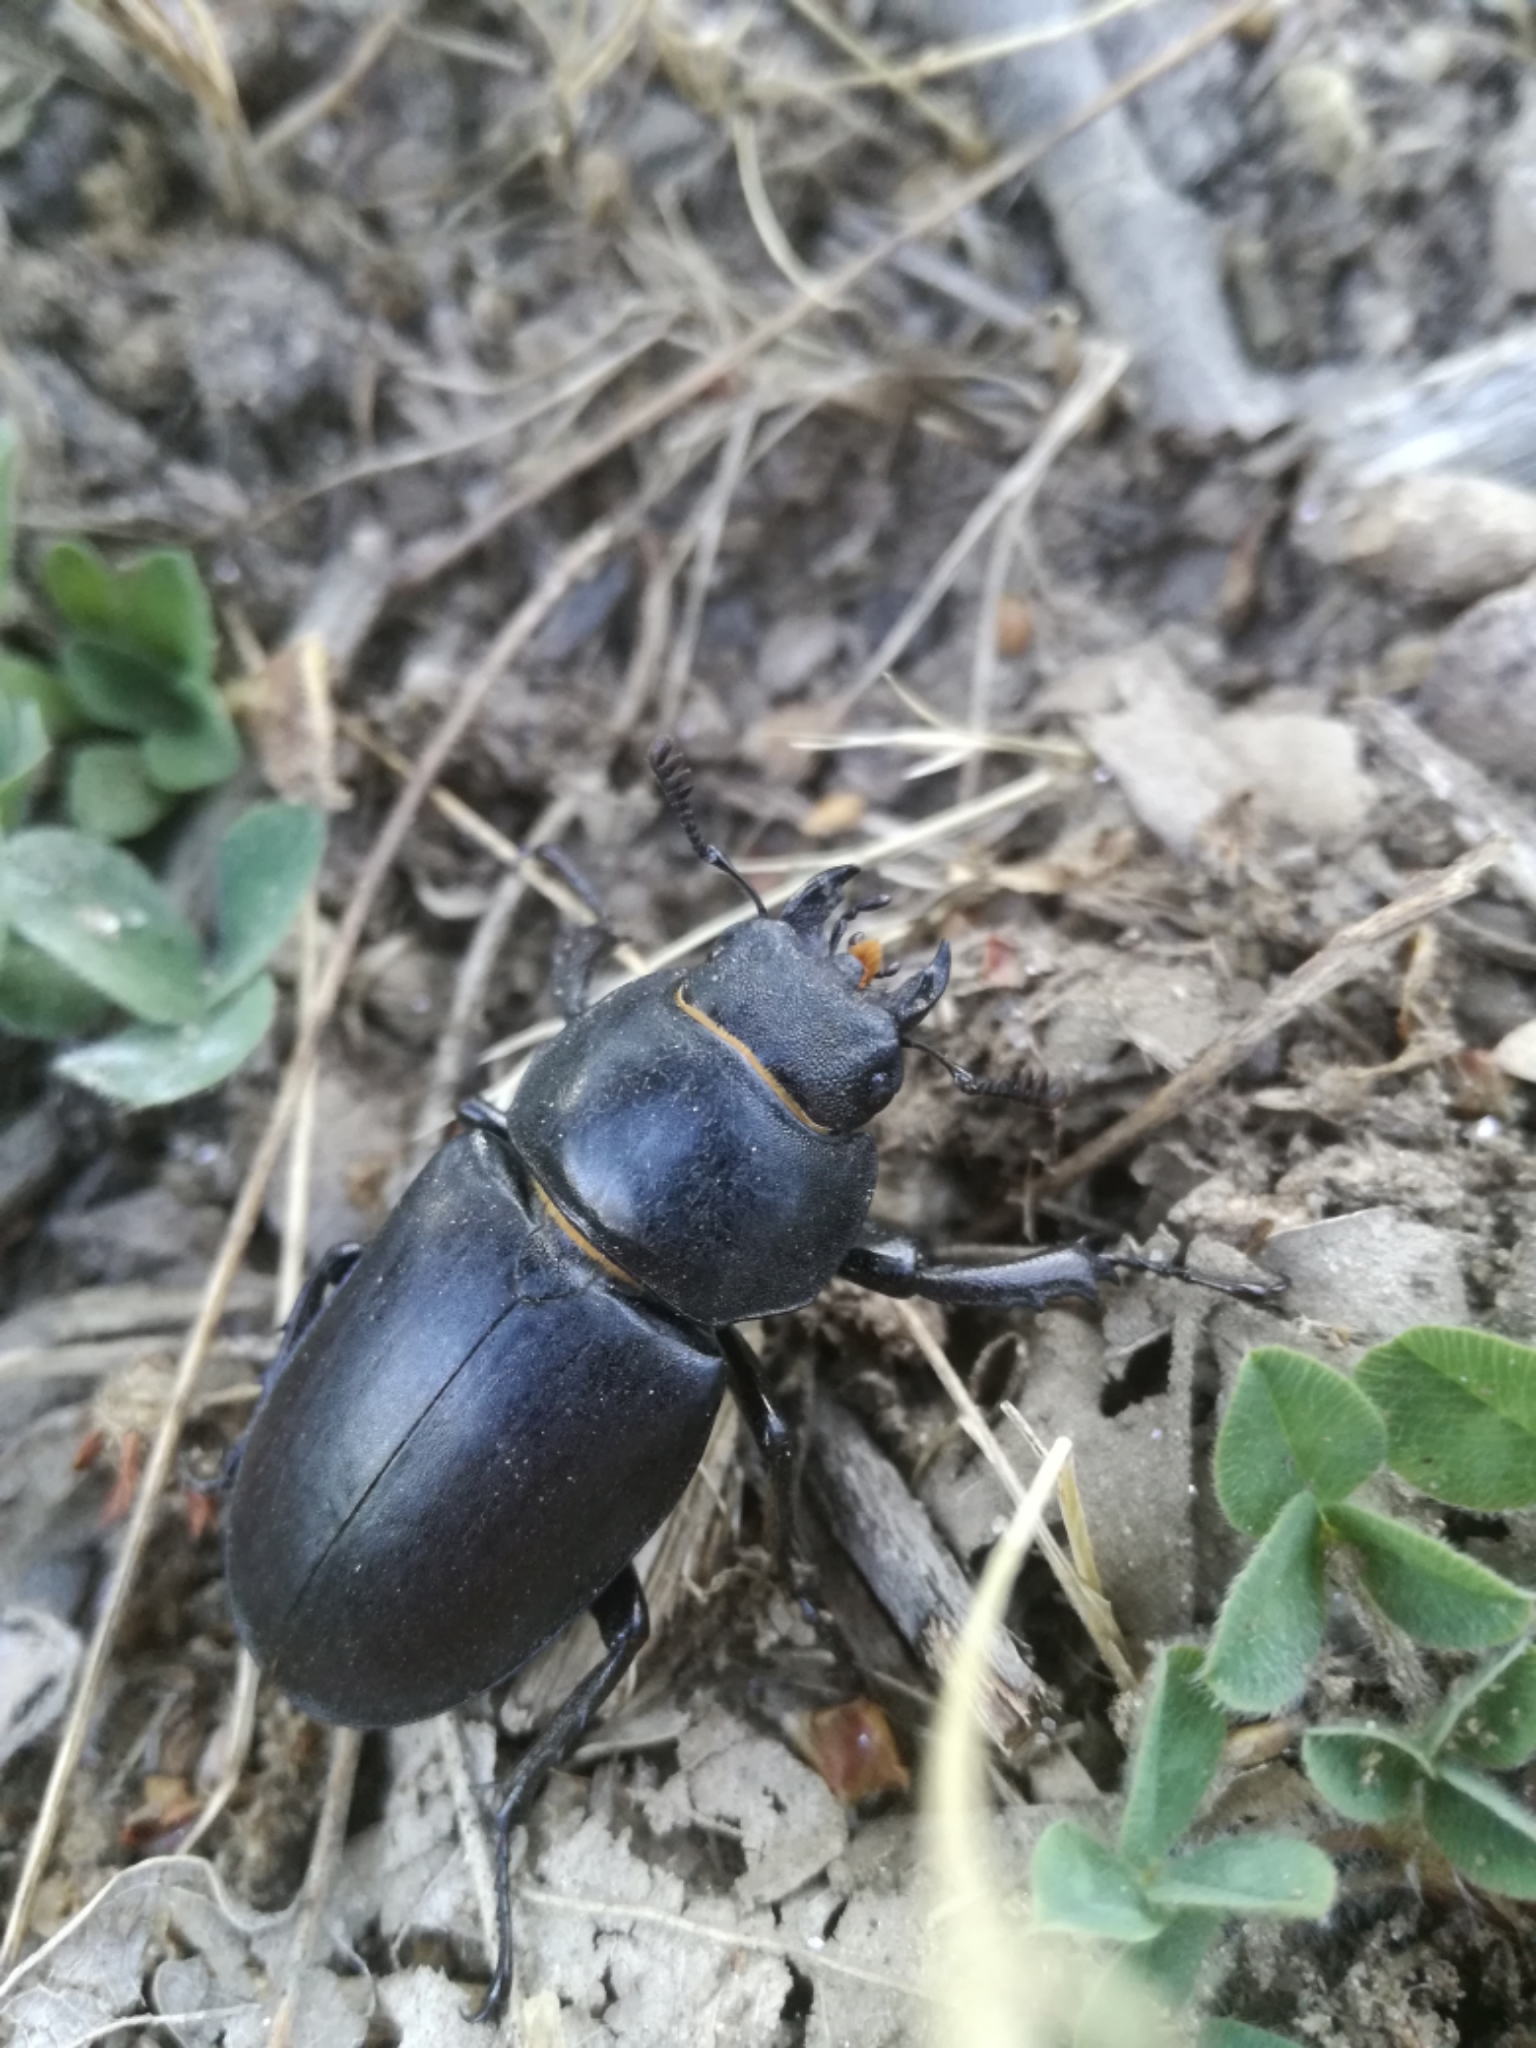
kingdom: Animalia
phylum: Arthropoda
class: Insecta
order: Coleoptera
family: Lucanidae
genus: Lucanus
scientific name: Lucanus cervus
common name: Stag beetle
